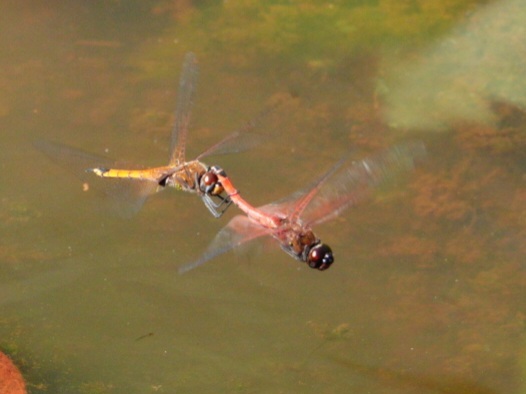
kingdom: Animalia
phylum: Arthropoda
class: Insecta
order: Odonata
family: Libellulidae
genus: Tramea
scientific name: Tramea transmarina
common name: Red glider dragonfly
